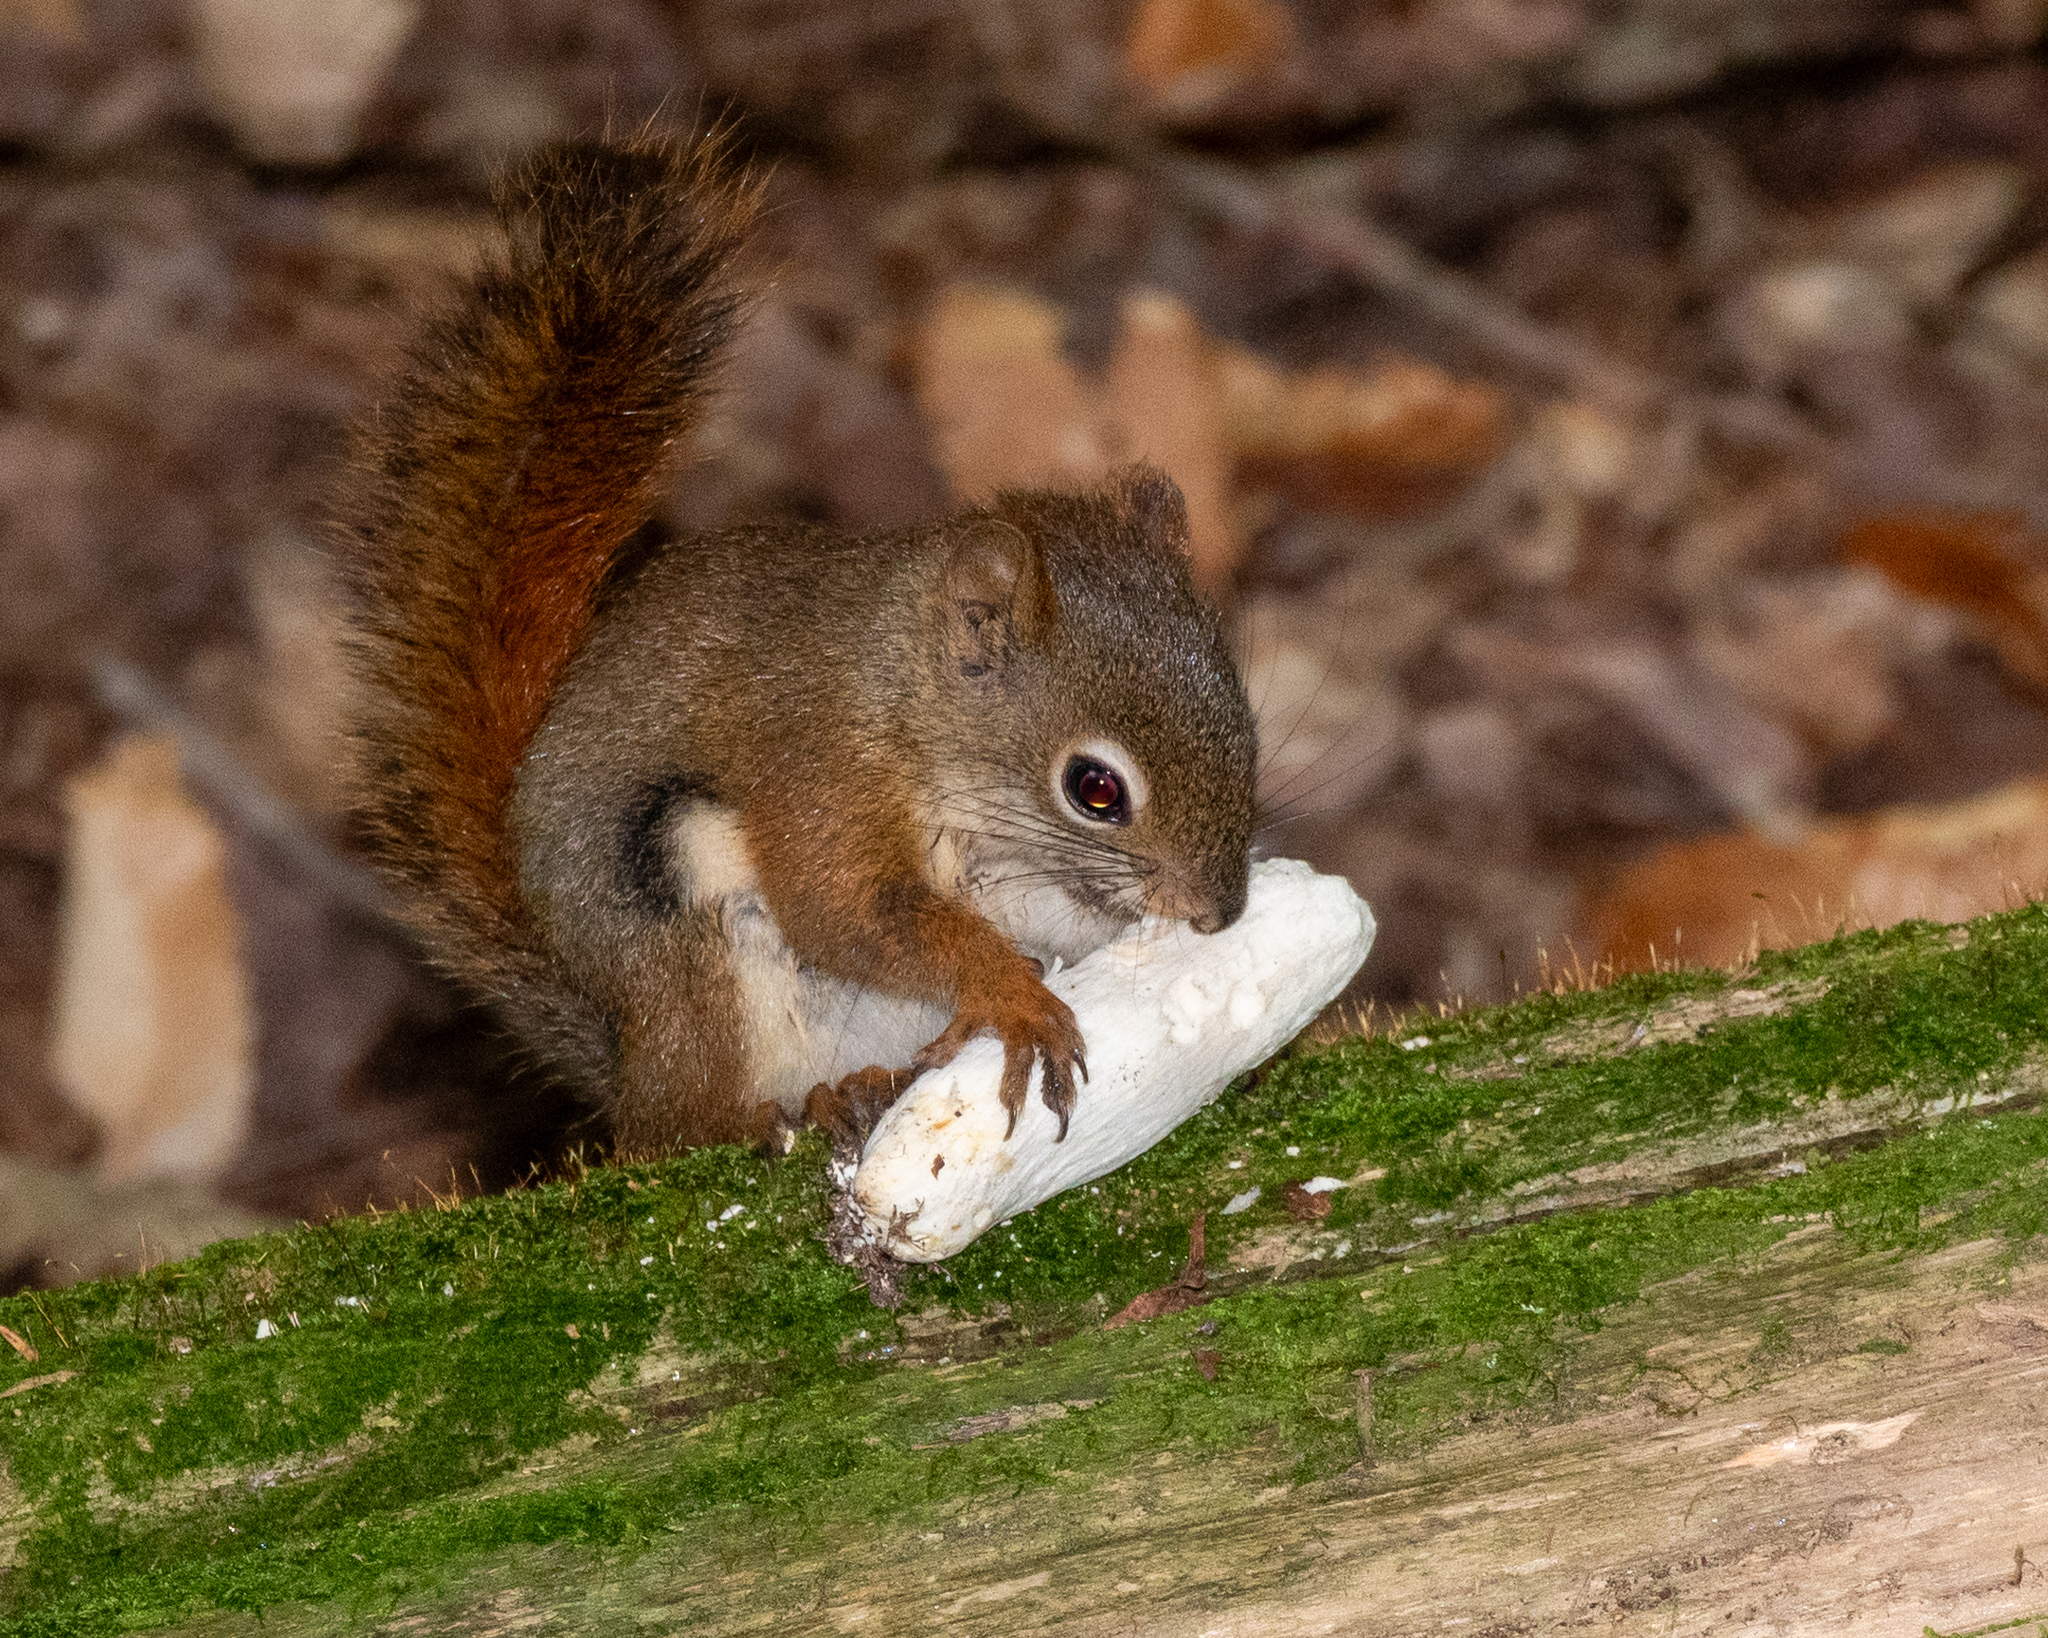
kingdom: Animalia
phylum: Chordata
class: Mammalia
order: Rodentia
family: Sciuridae
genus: Tamiasciurus
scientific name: Tamiasciurus hudsonicus
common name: Red squirrel
